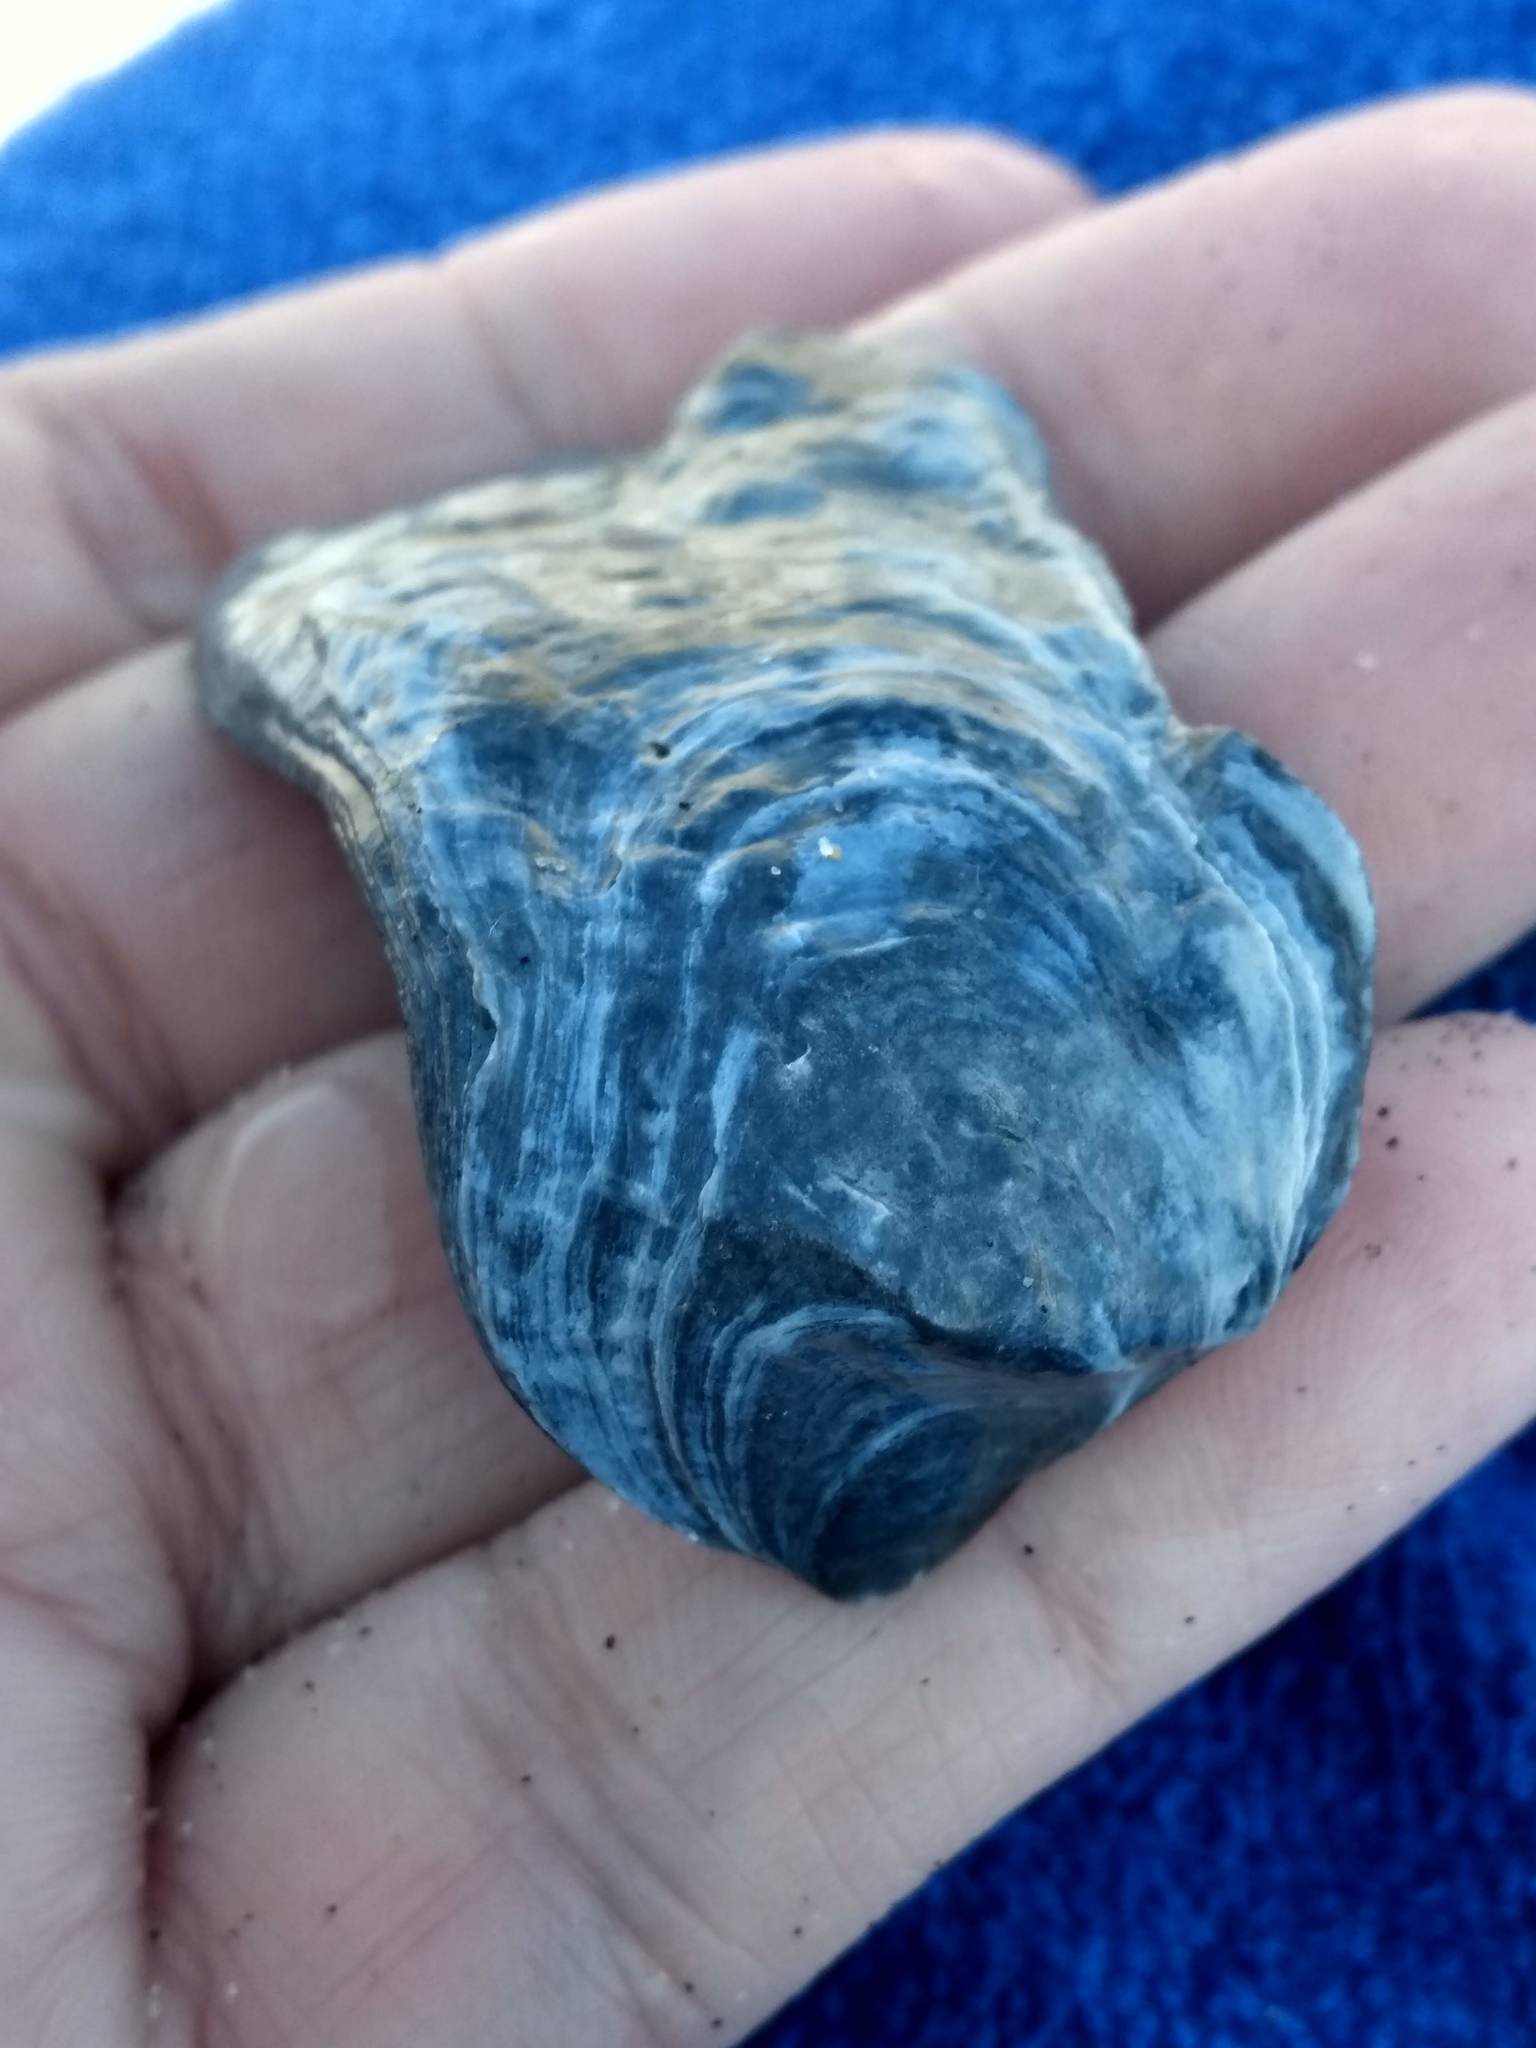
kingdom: Animalia
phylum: Mollusca
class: Bivalvia
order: Ostreida
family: Ostreidae
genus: Ostrea
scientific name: Ostrea lurida
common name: Olympia flat oyster
